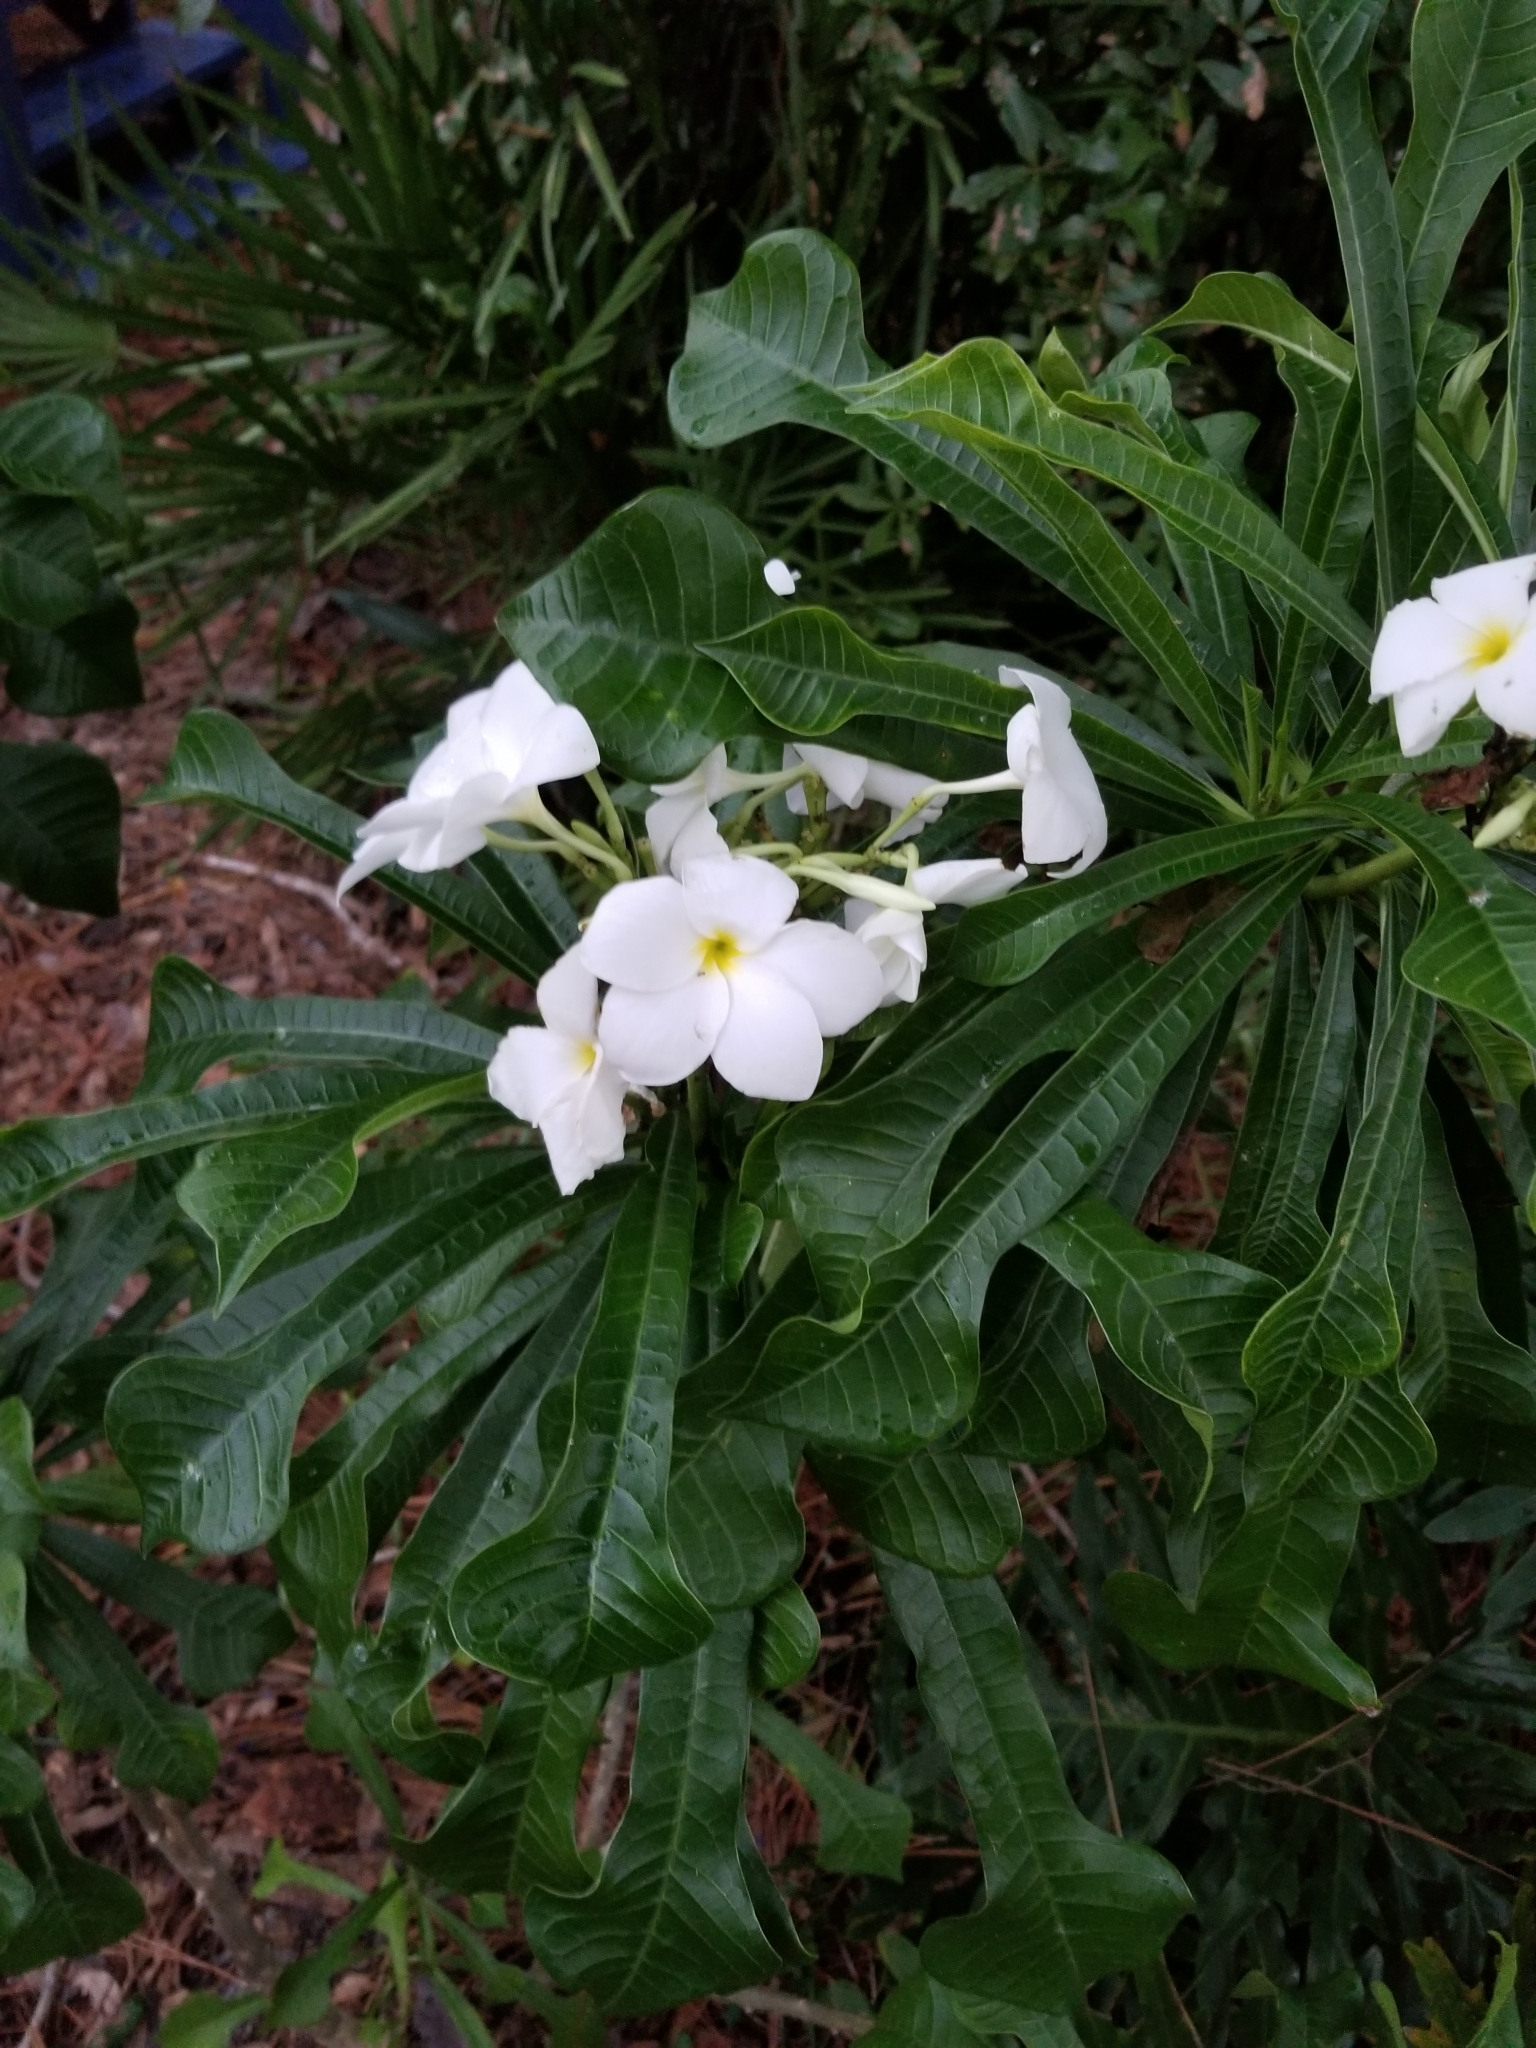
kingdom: Plantae
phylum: Tracheophyta
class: Magnoliopsida
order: Gentianales
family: Apocynaceae
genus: Plumeria
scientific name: Plumeria pudica
